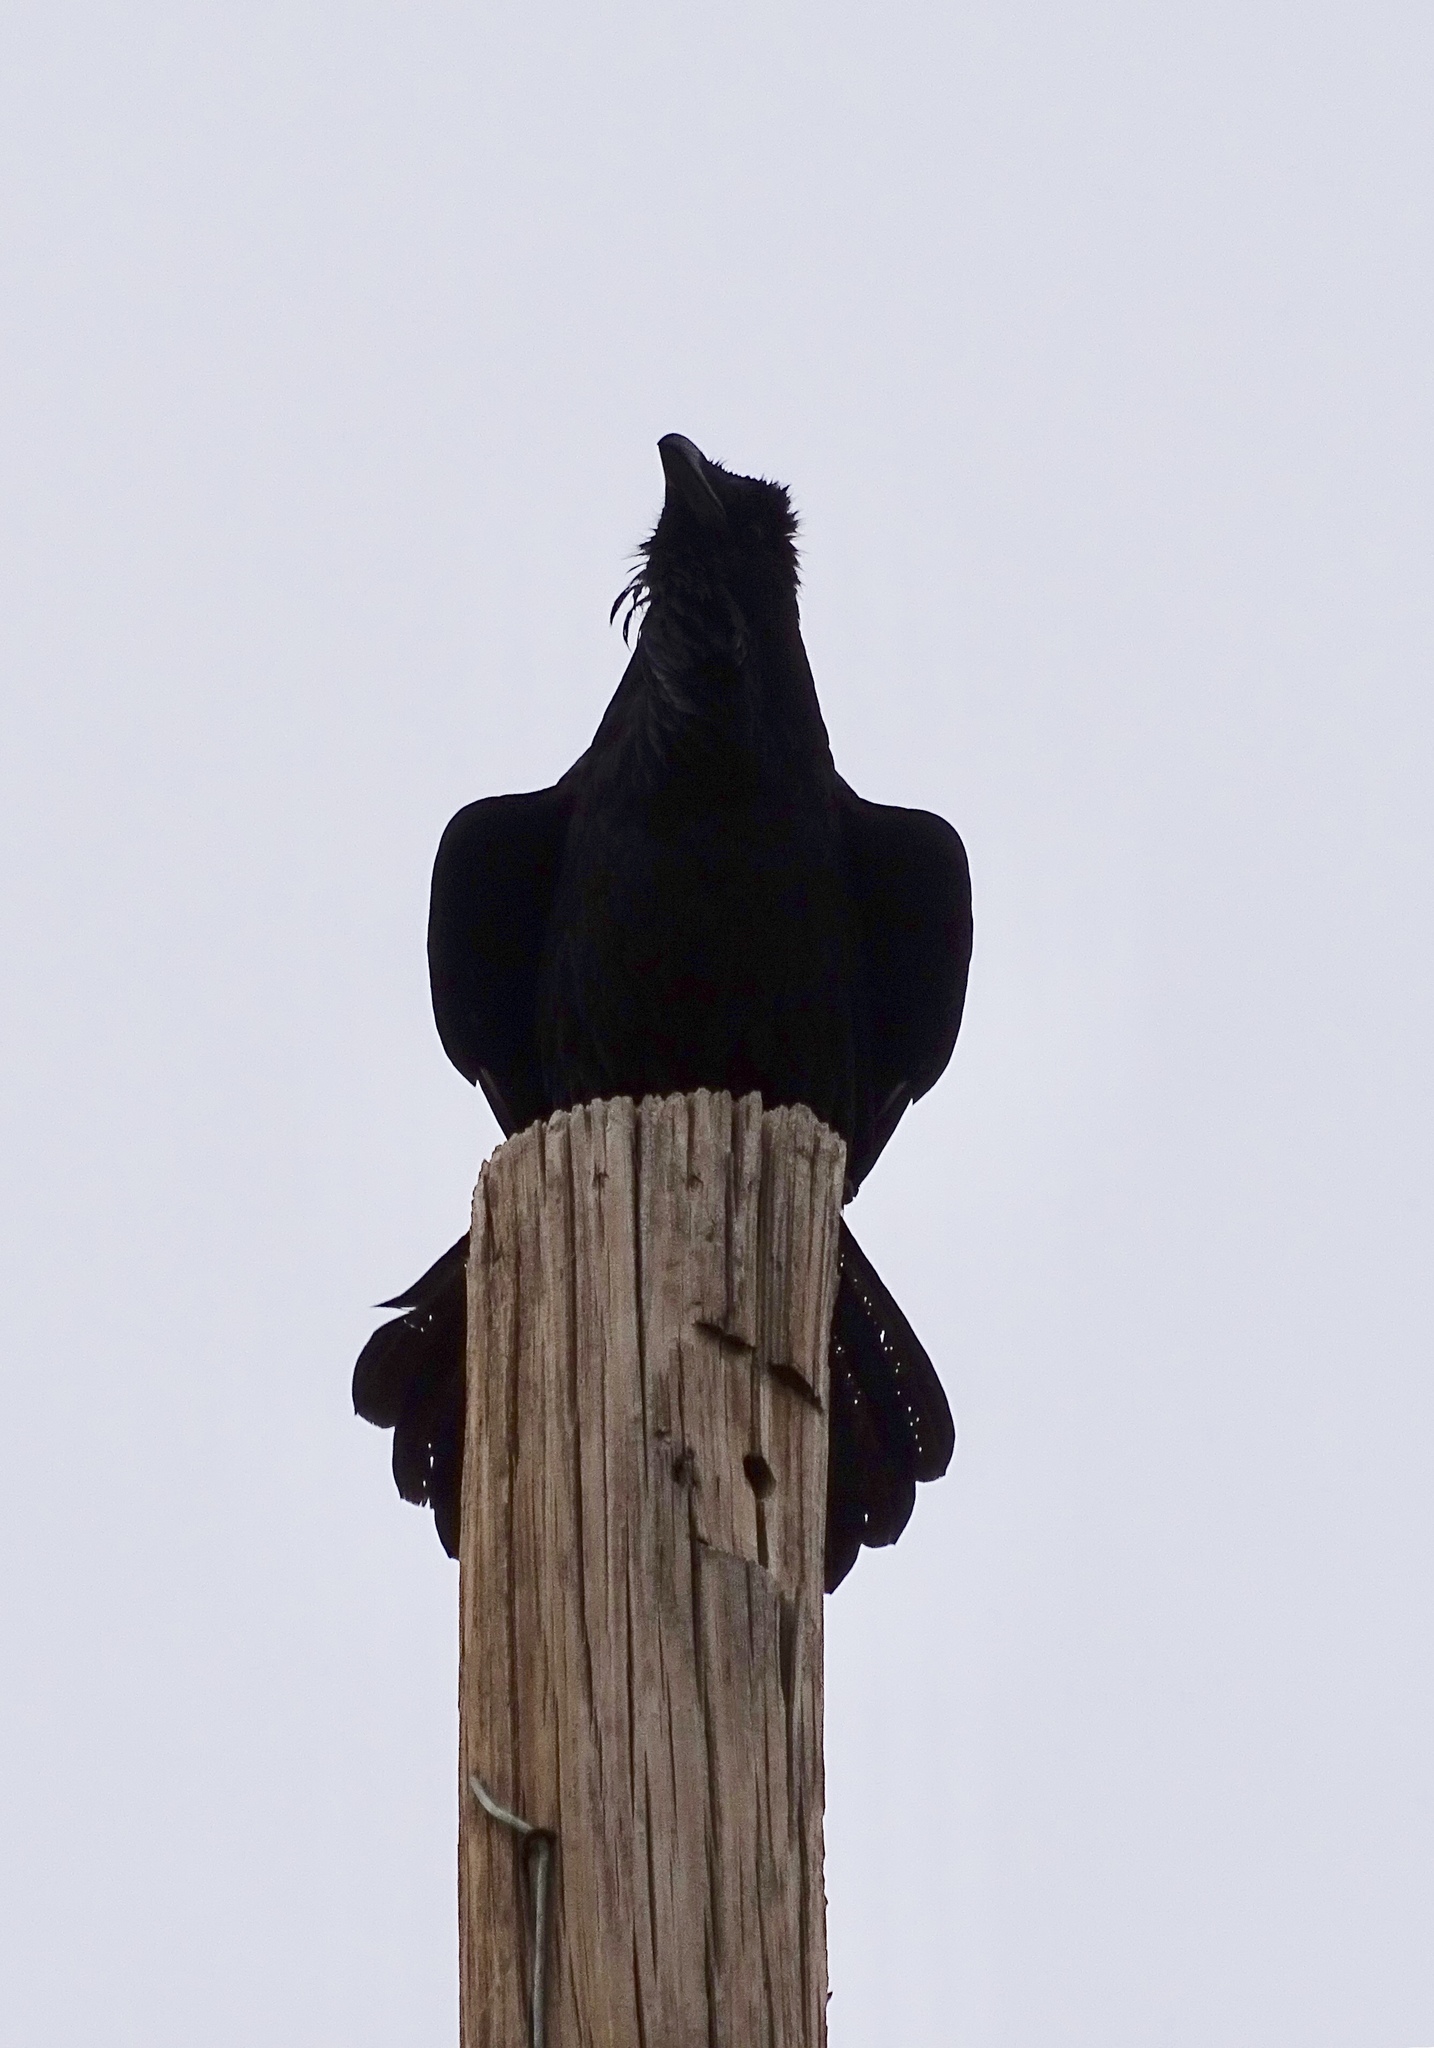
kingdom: Animalia
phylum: Chordata
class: Aves
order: Passeriformes
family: Corvidae
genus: Corvus
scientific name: Corvus corax
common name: Common raven
